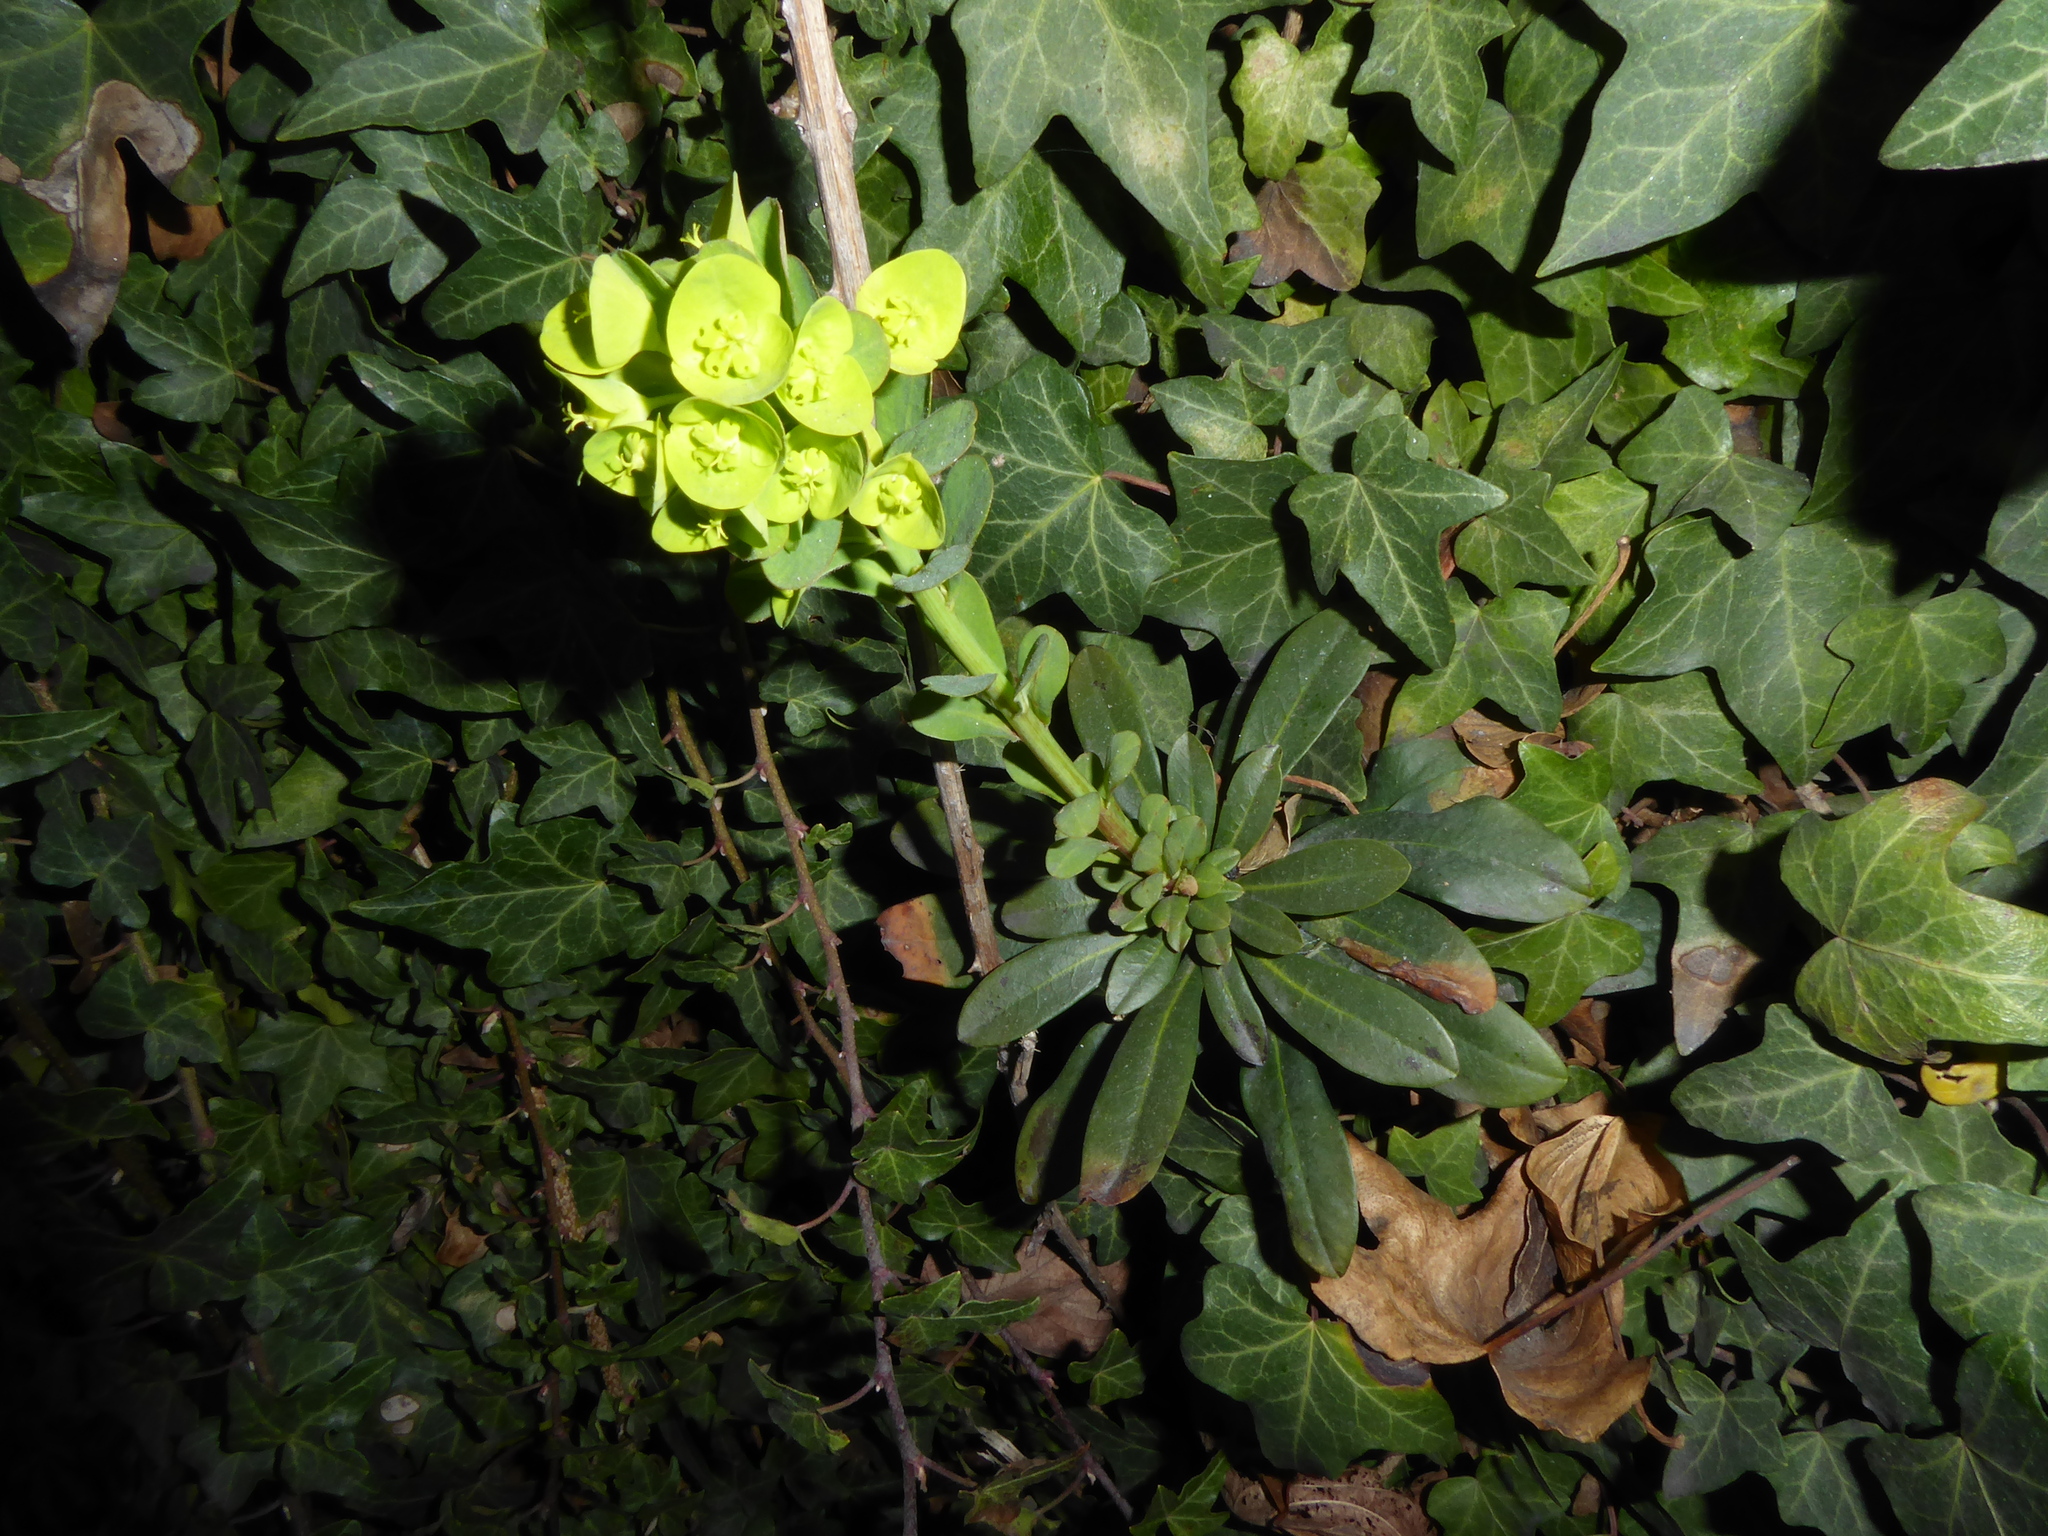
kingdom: Plantae
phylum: Tracheophyta
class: Magnoliopsida
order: Malpighiales
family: Euphorbiaceae
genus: Euphorbia
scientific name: Euphorbia amygdaloides
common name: Wood spurge
